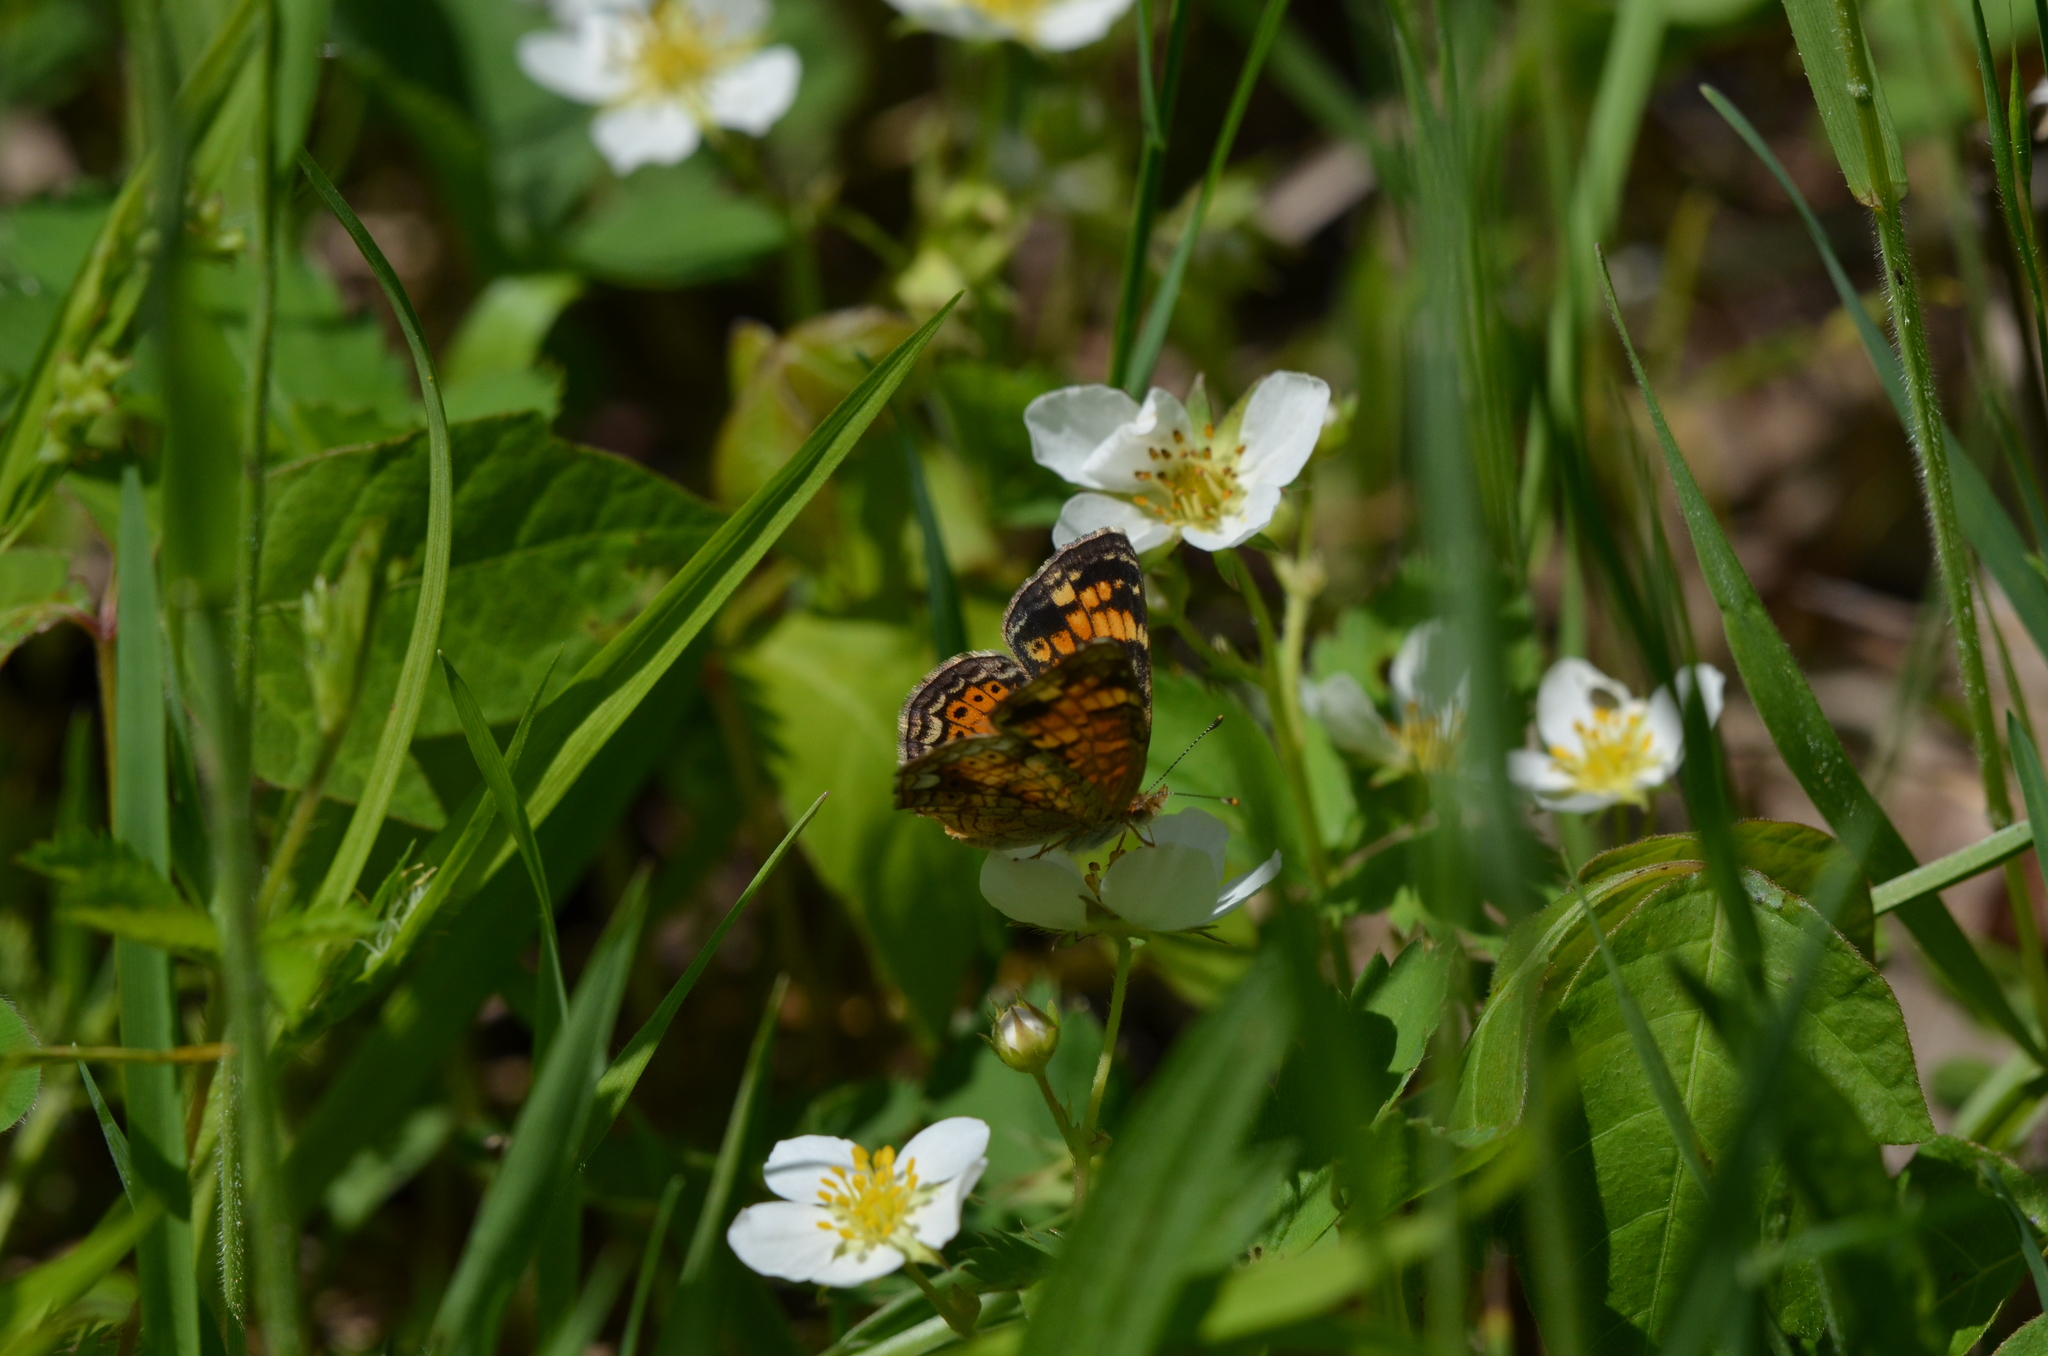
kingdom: Animalia
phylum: Arthropoda
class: Insecta
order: Lepidoptera
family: Nymphalidae
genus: Phyciodes
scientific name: Phyciodes tharos
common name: Pearl crescent
